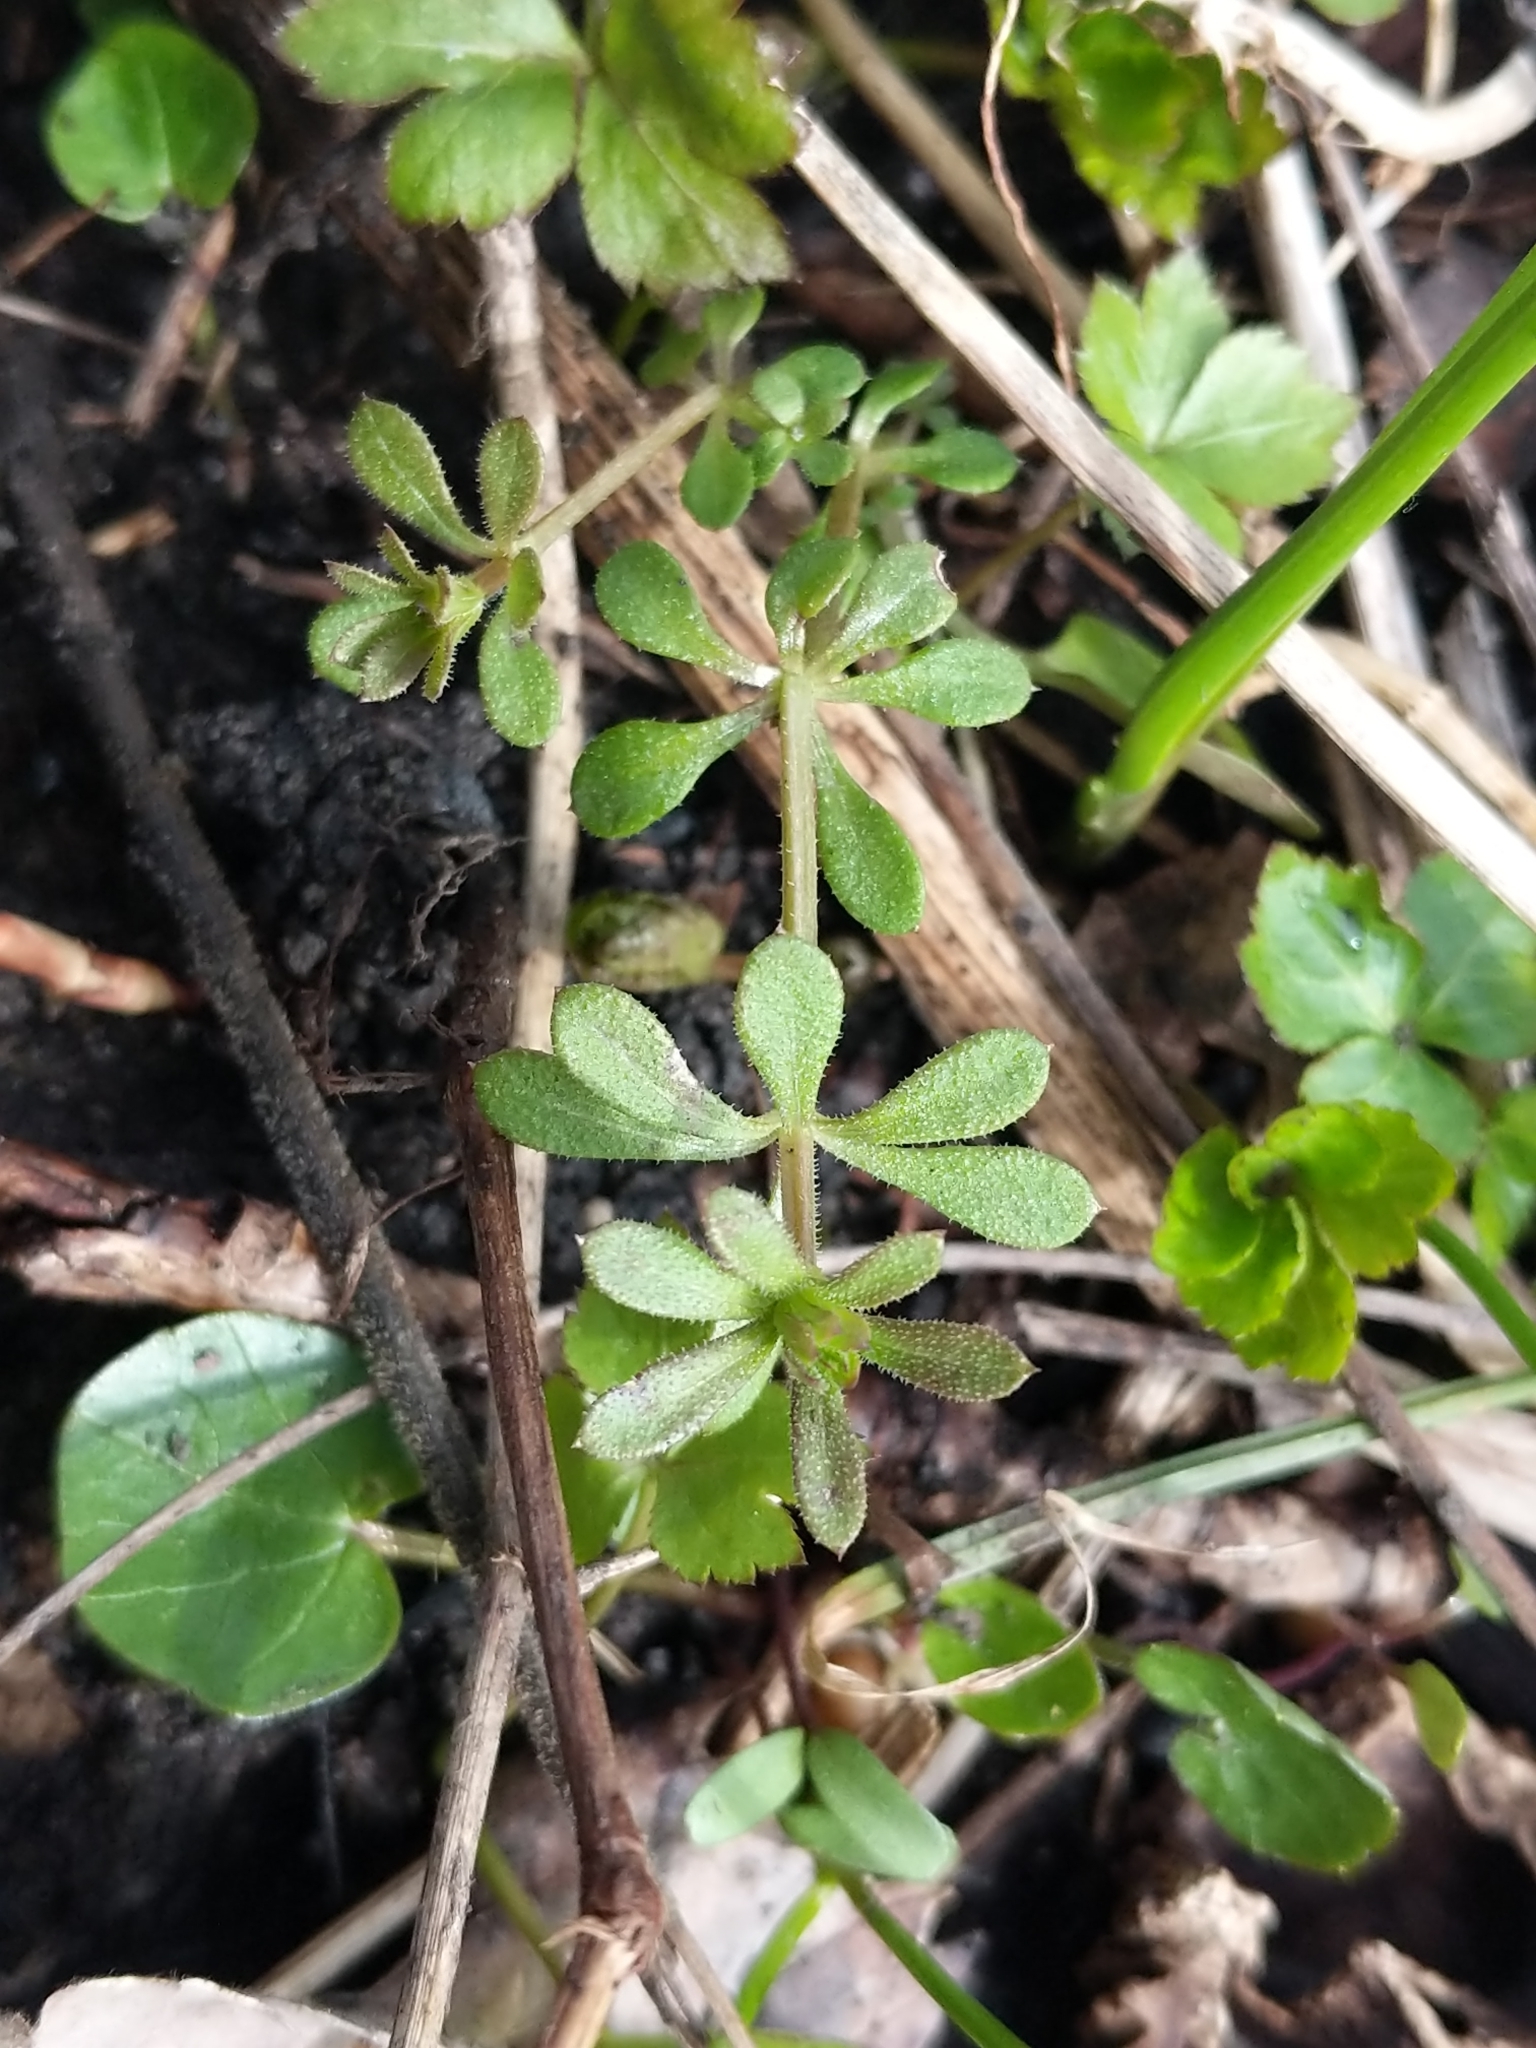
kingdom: Plantae
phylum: Tracheophyta
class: Magnoliopsida
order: Gentianales
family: Rubiaceae
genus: Galium
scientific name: Galium aparine
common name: Cleavers
